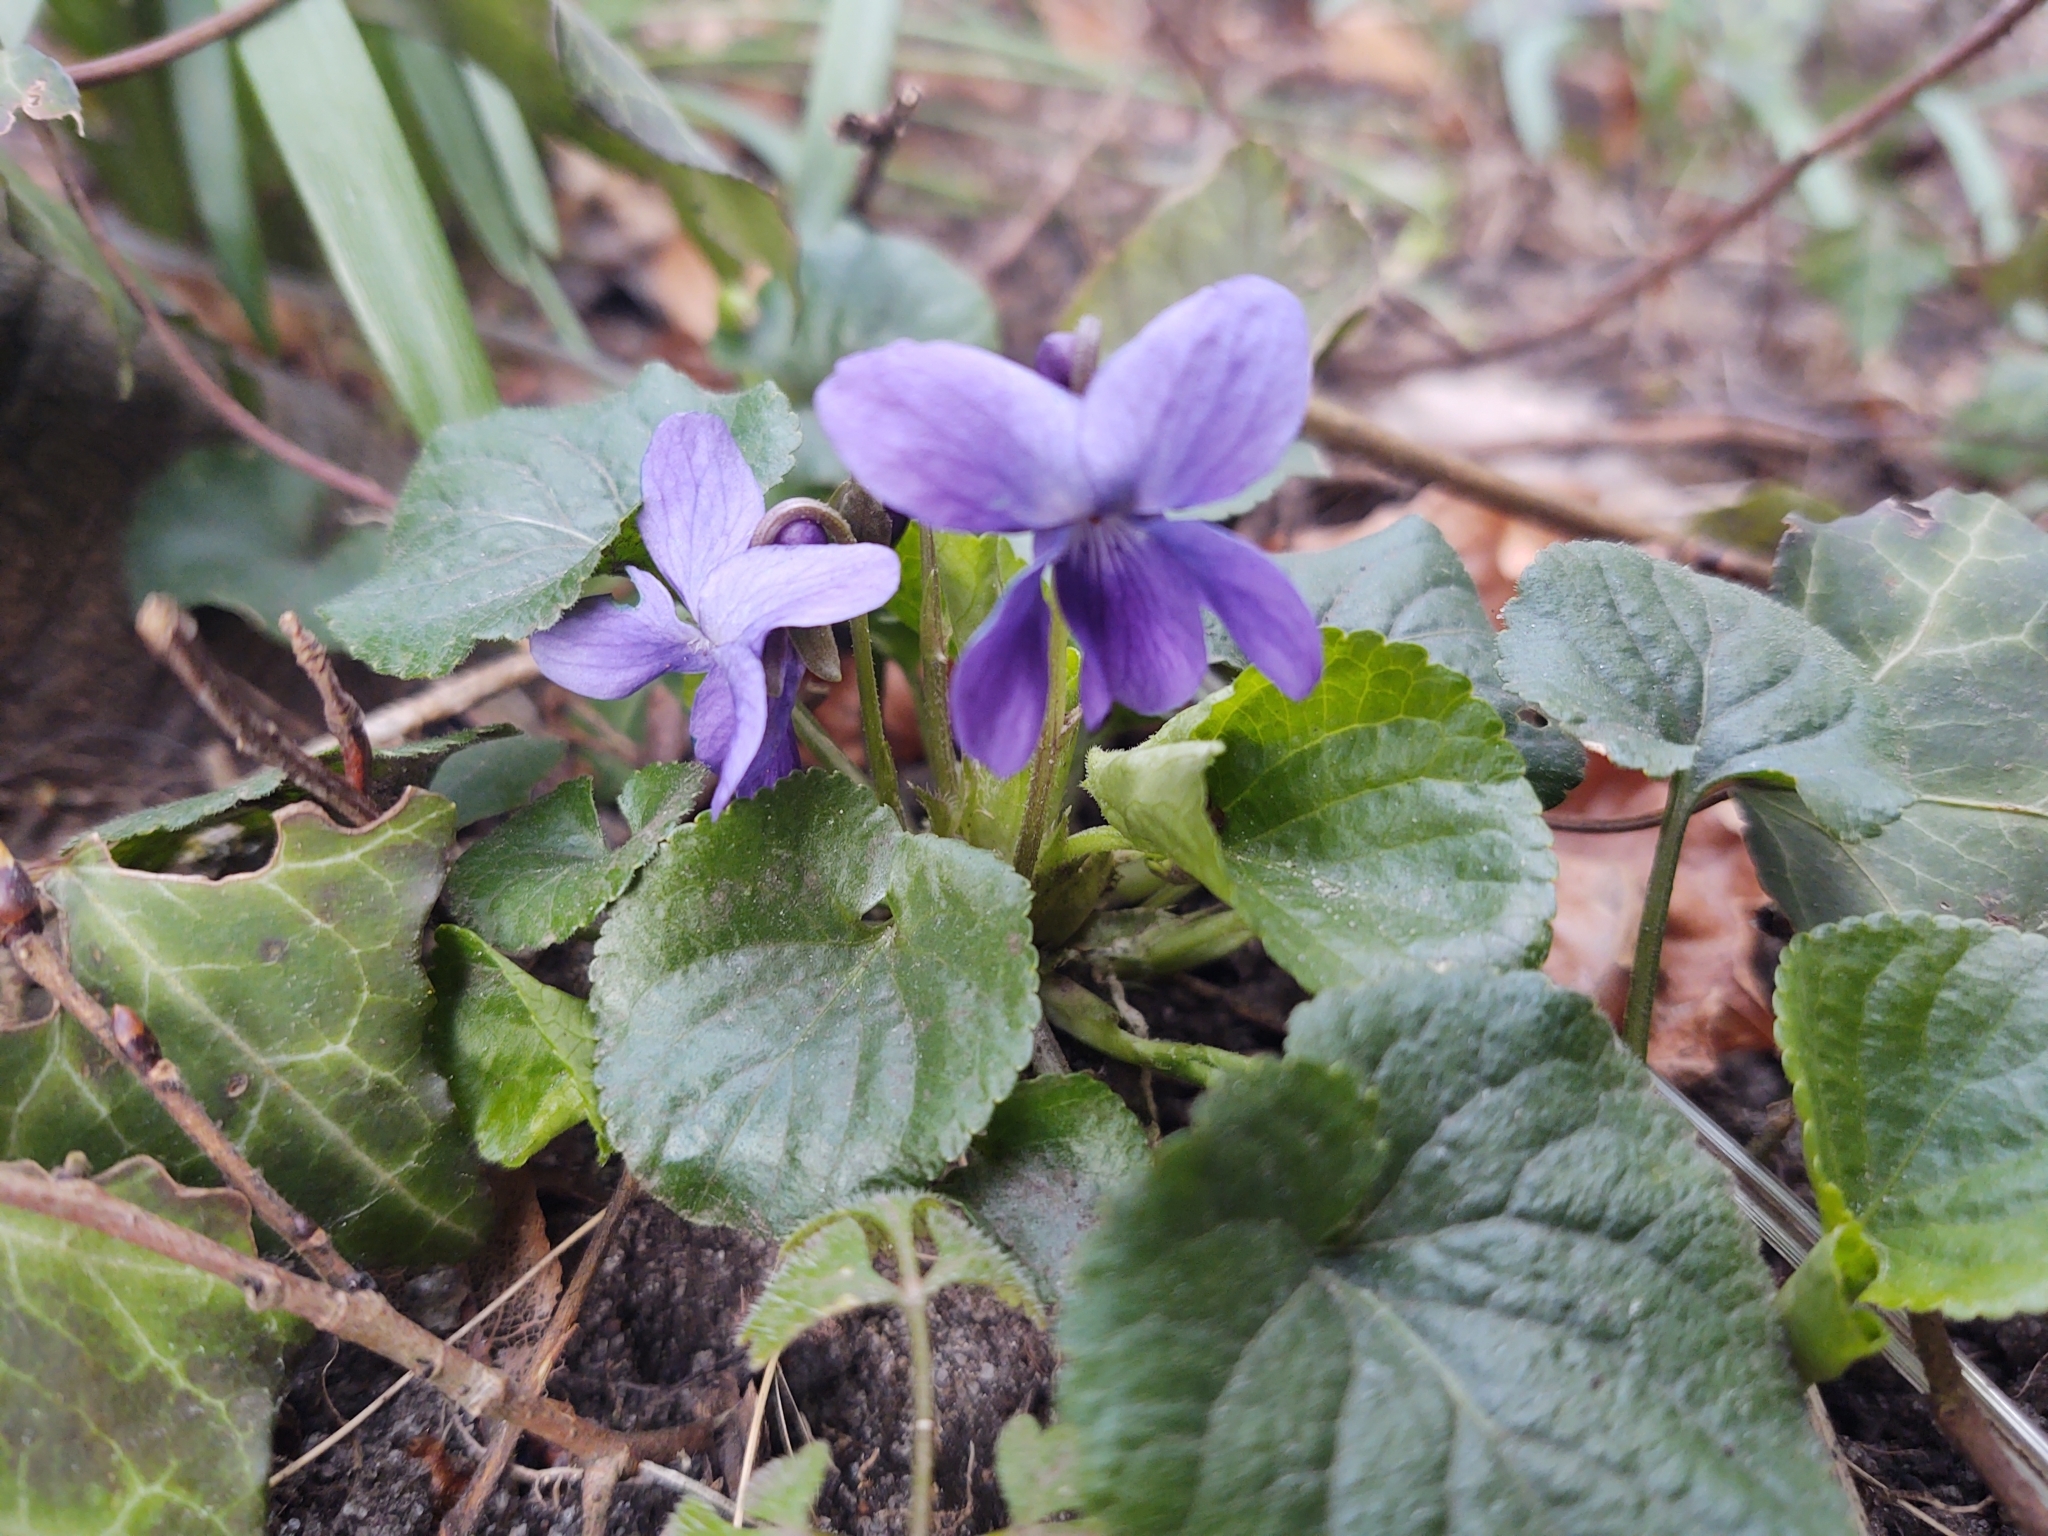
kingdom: Plantae
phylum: Tracheophyta
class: Magnoliopsida
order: Malpighiales
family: Violaceae
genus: Viola
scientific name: Viola odorata
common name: Sweet violet
